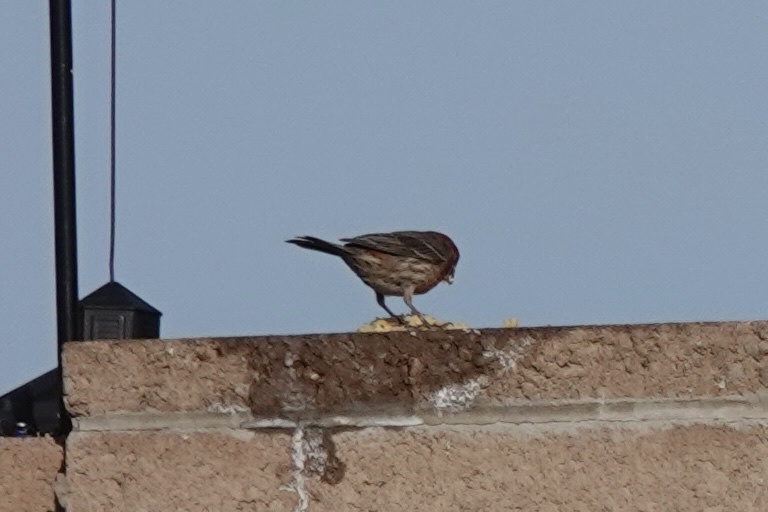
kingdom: Animalia
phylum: Chordata
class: Aves
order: Passeriformes
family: Fringillidae
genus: Haemorhous
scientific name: Haemorhous mexicanus
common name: House finch
